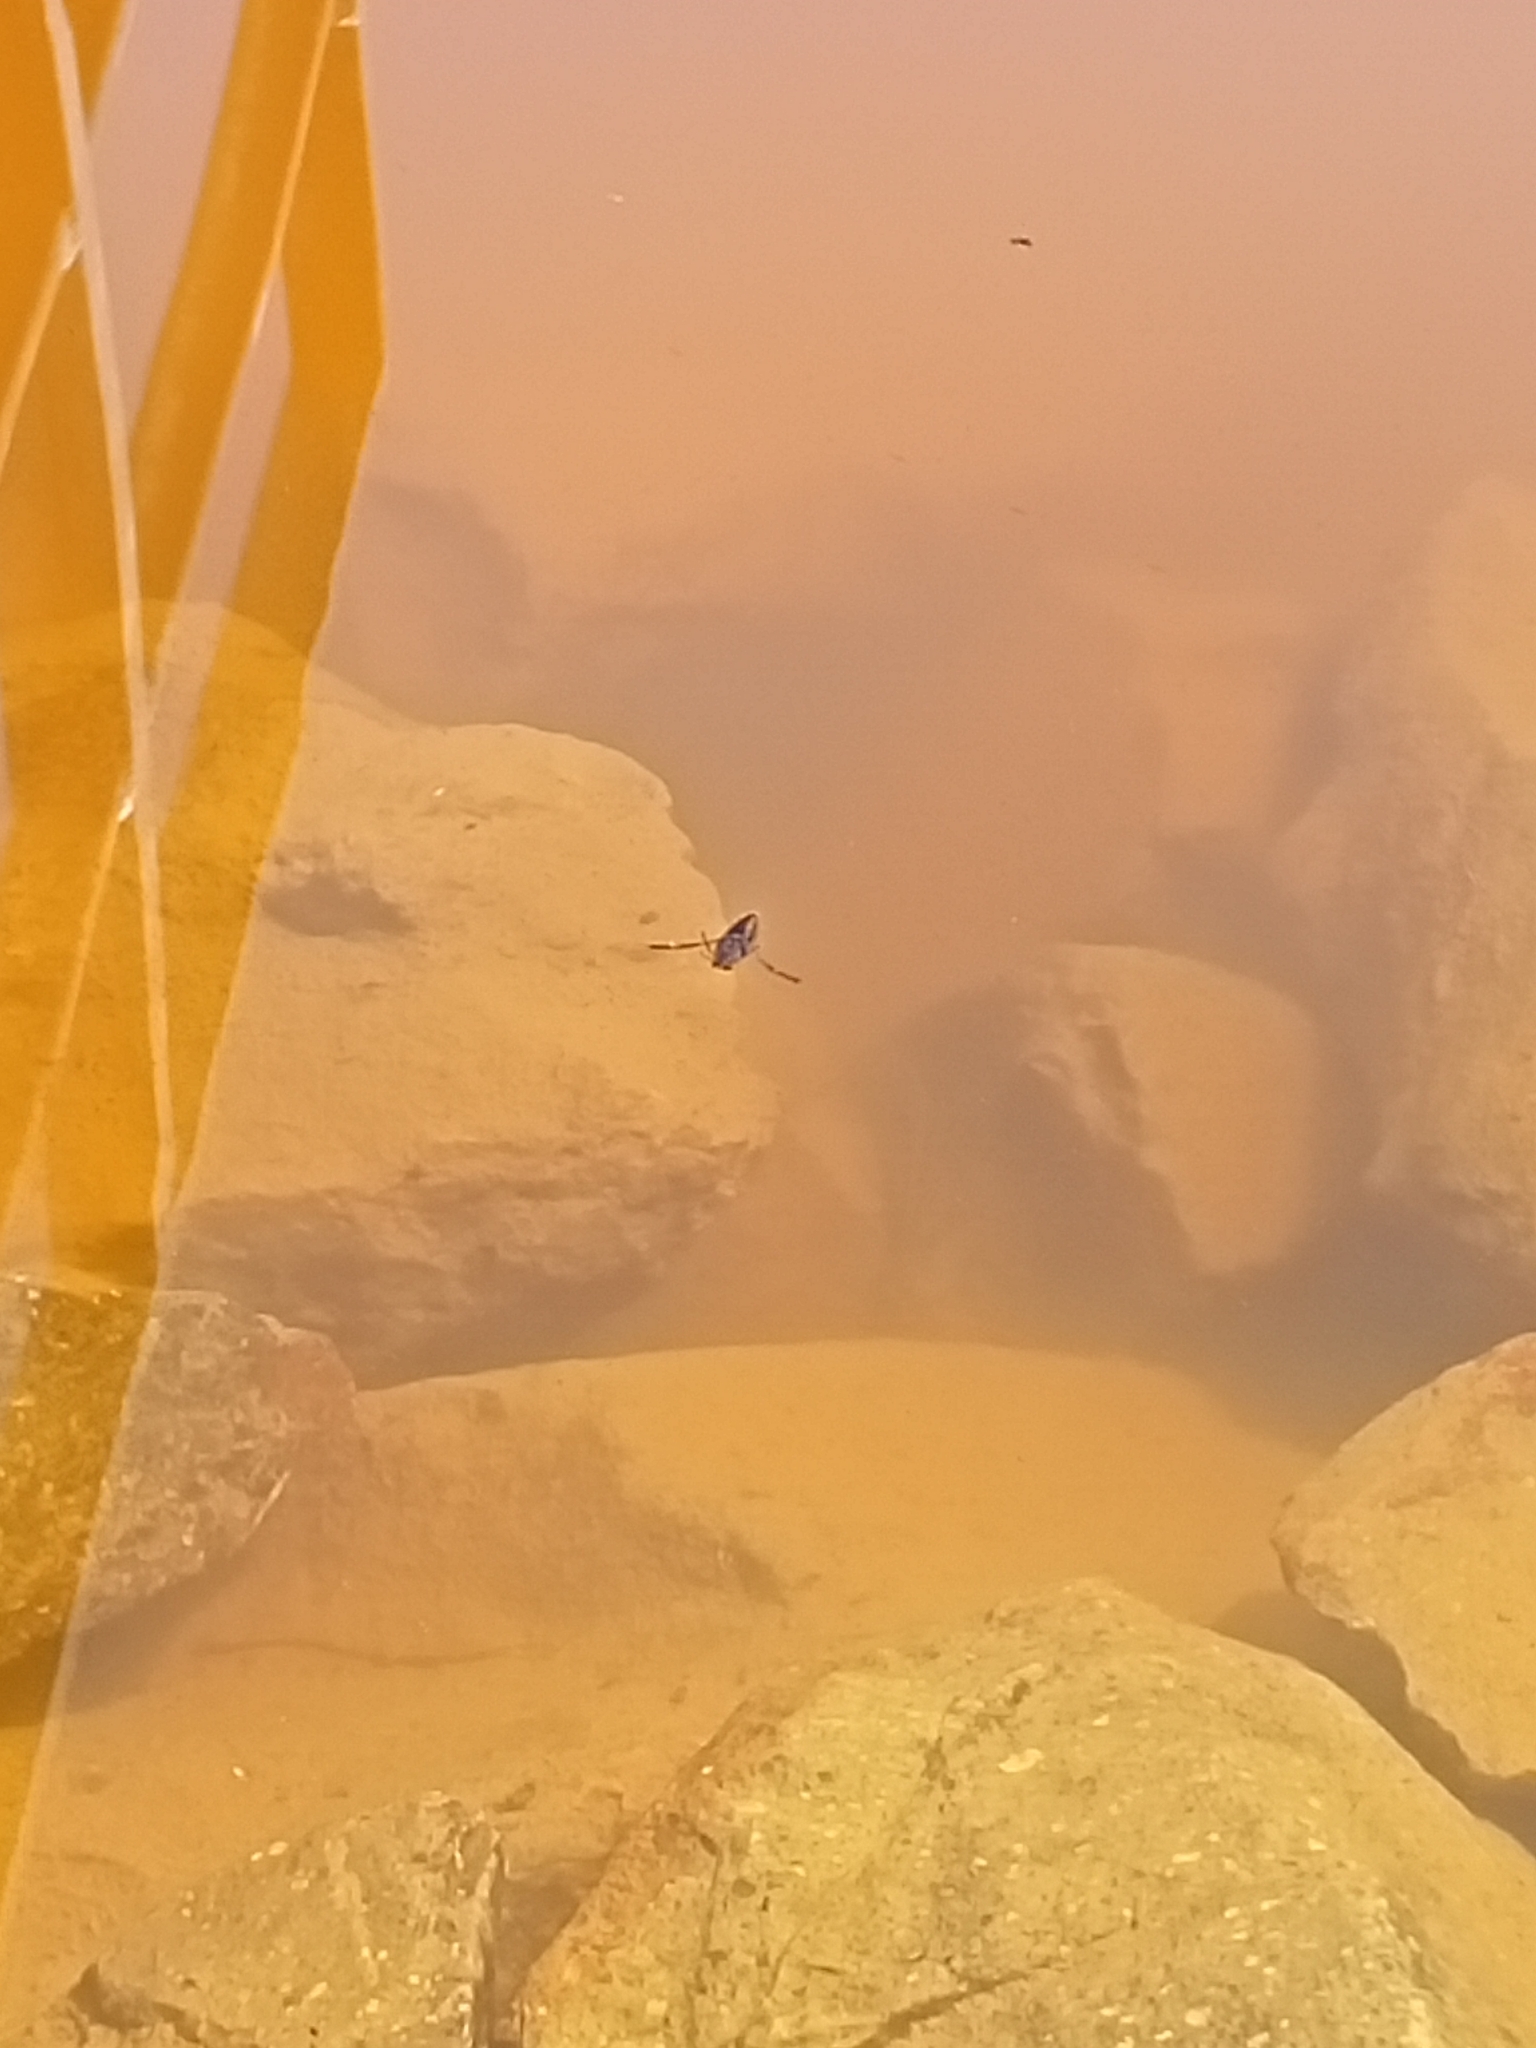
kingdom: Animalia
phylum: Arthropoda
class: Insecta
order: Hemiptera
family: Notonectidae
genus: Notonecta
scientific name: Notonecta
